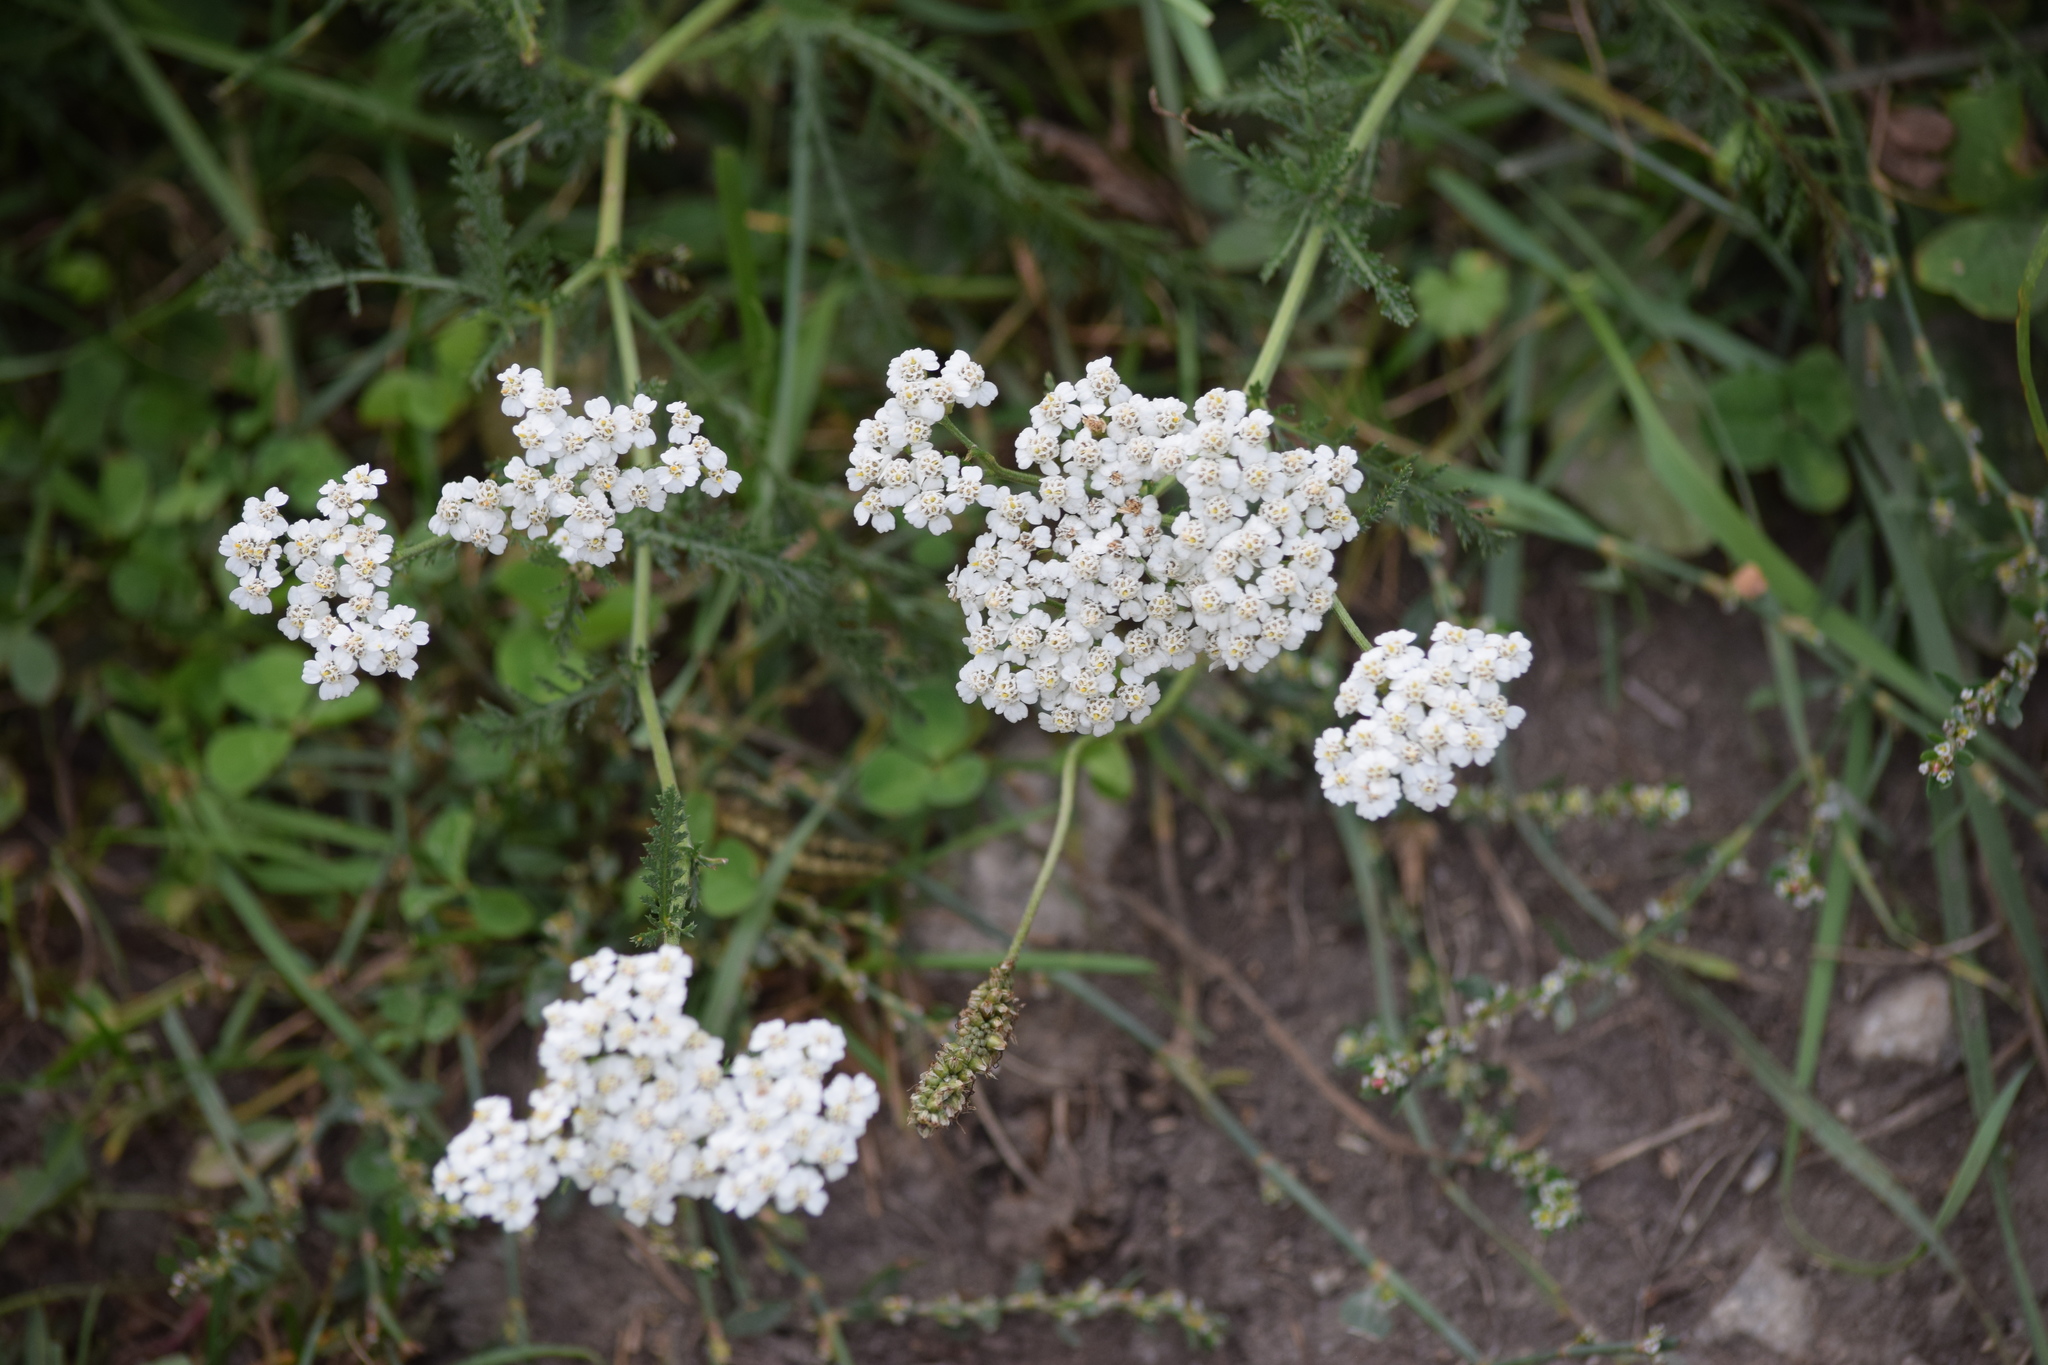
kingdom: Plantae
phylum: Tracheophyta
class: Magnoliopsida
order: Asterales
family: Asteraceae
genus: Achillea
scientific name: Achillea millefolium
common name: Yarrow
